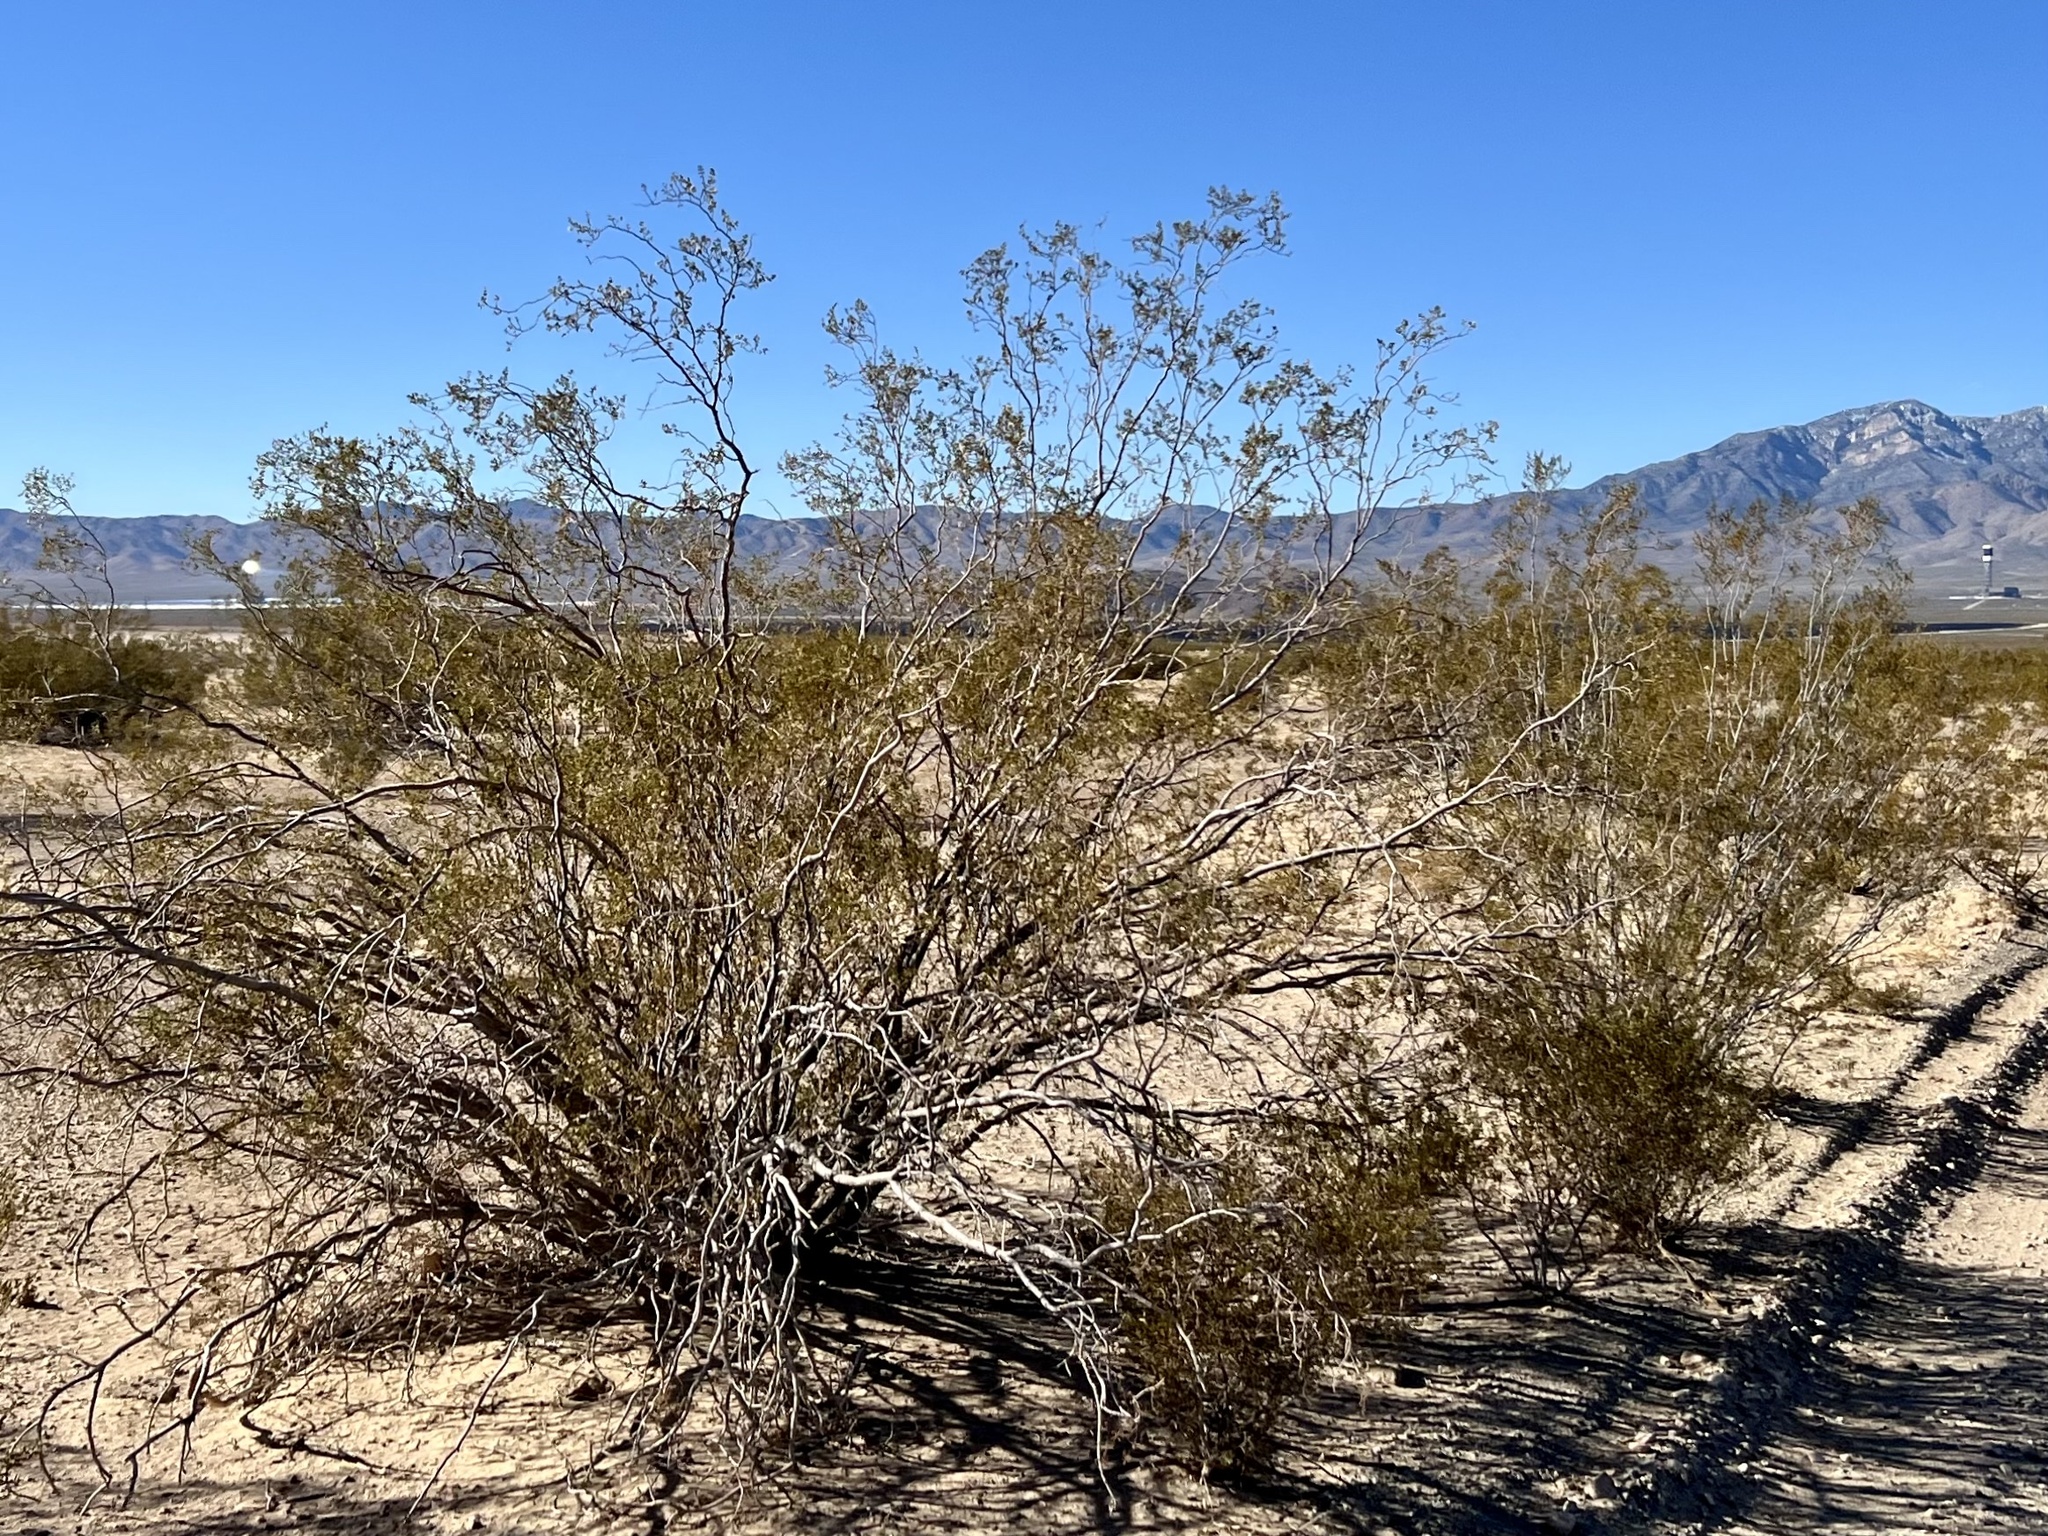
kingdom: Plantae
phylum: Tracheophyta
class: Magnoliopsida
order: Zygophyllales
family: Zygophyllaceae
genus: Larrea
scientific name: Larrea tridentata
